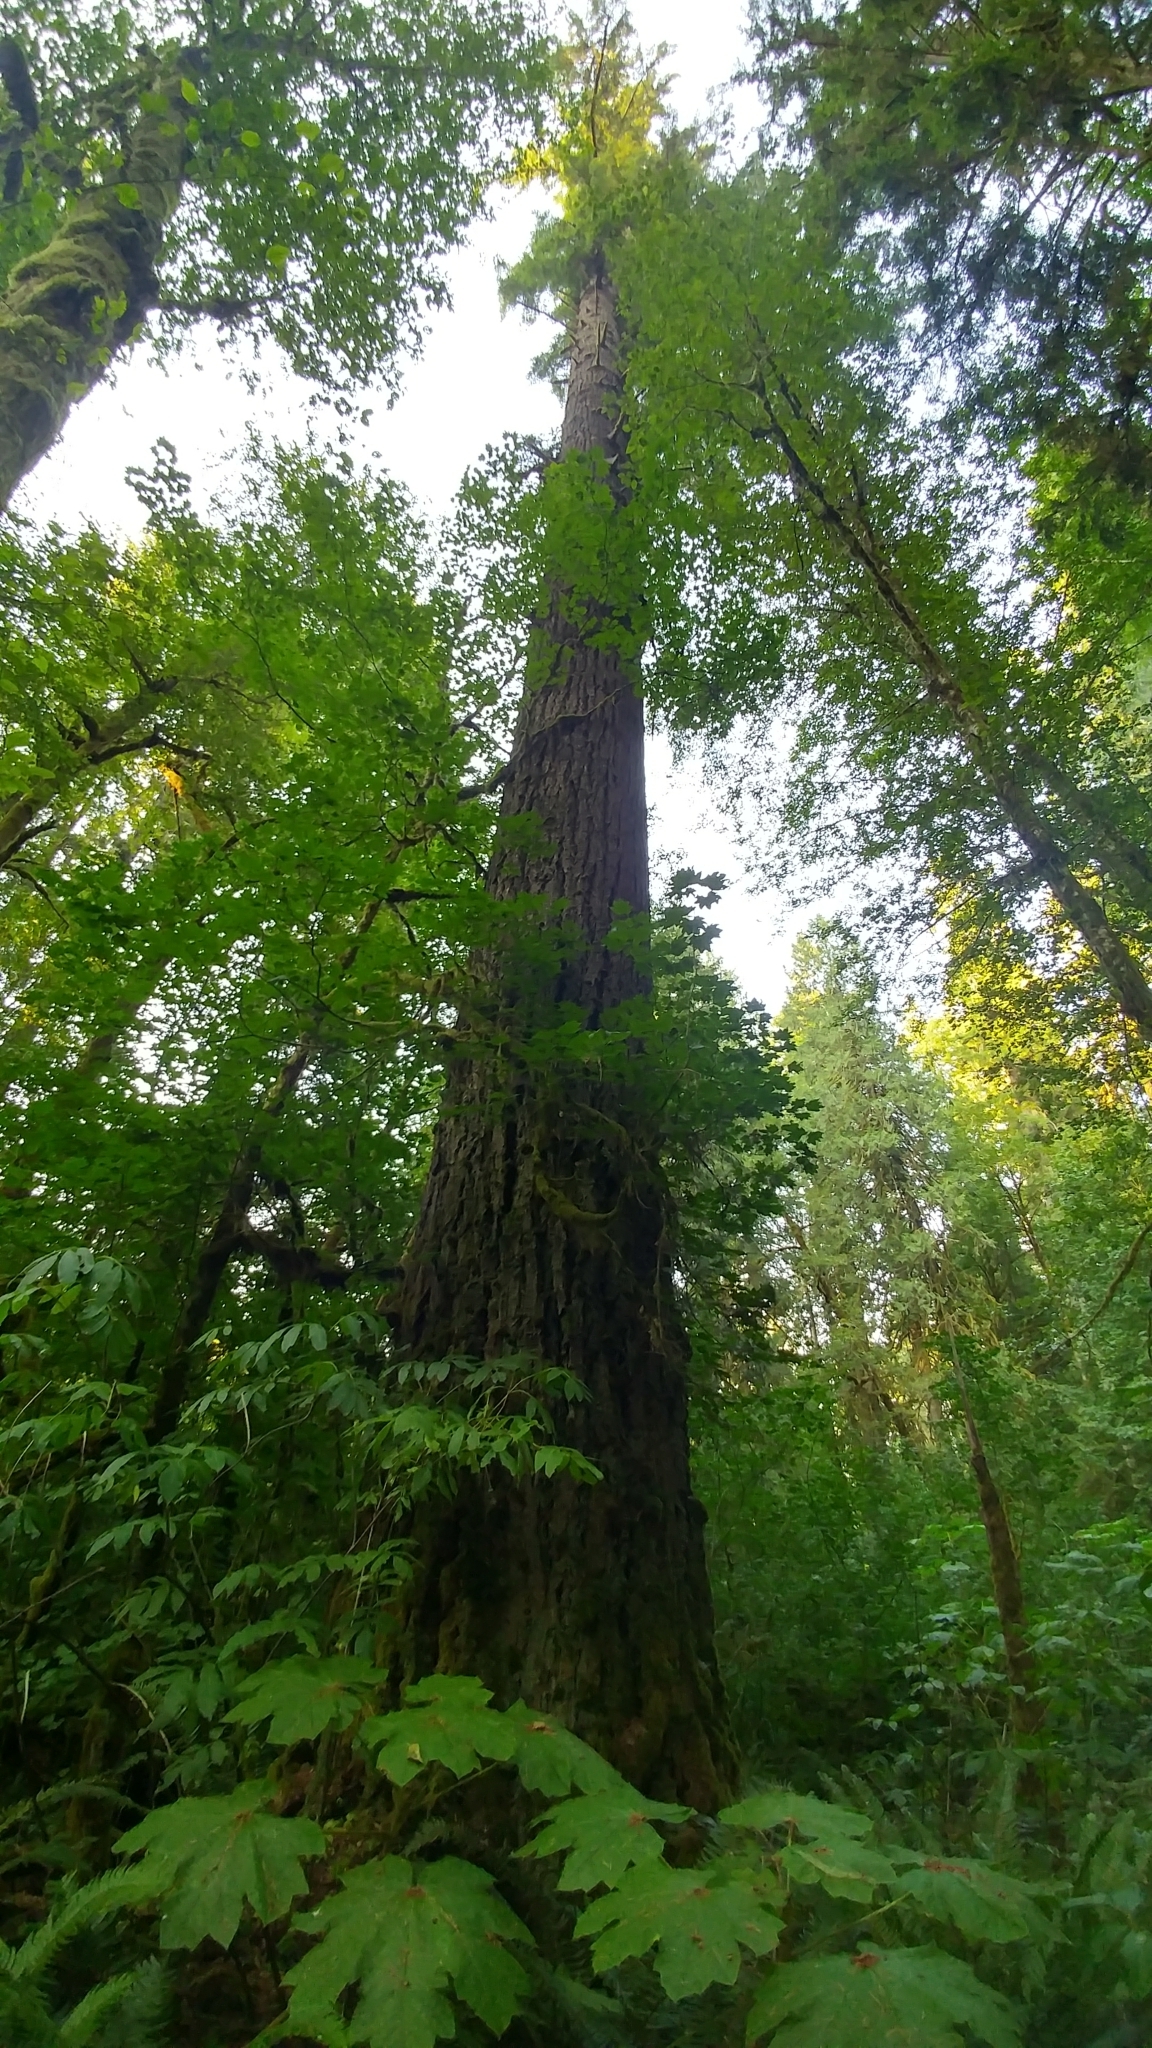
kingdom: Plantae
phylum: Tracheophyta
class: Pinopsida
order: Pinales
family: Pinaceae
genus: Pseudotsuga
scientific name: Pseudotsuga menziesii
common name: Douglas fir
